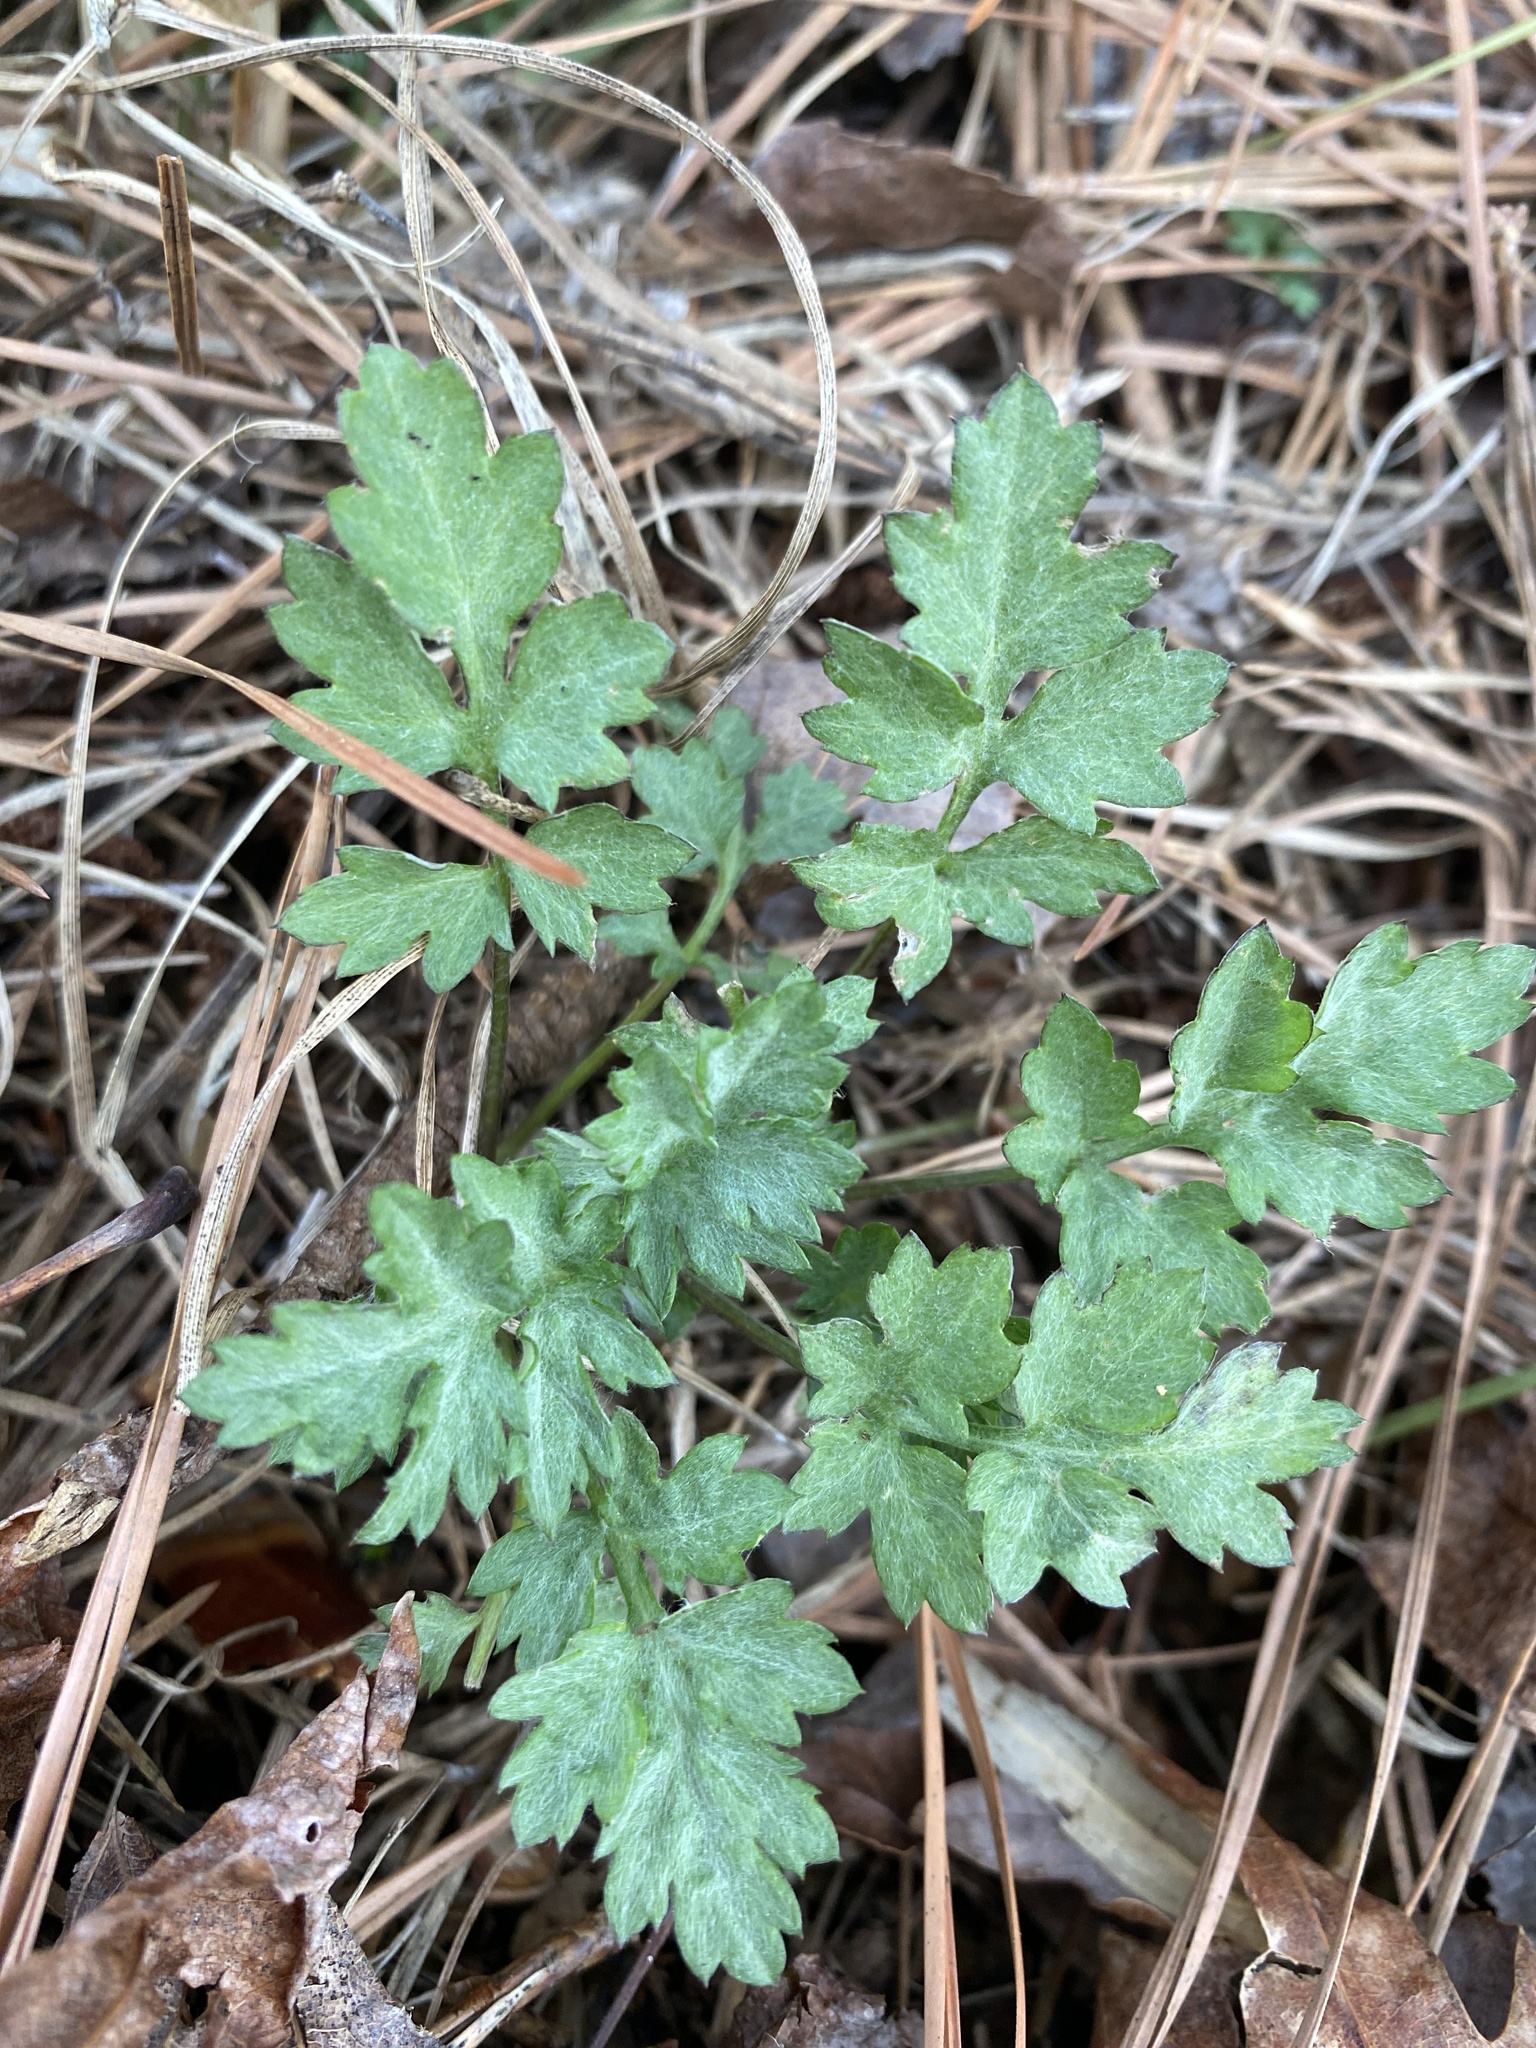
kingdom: Plantae
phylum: Tracheophyta
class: Magnoliopsida
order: Asterales
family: Asteraceae
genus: Artemisia
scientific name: Artemisia vulgaris
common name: Mugwort
